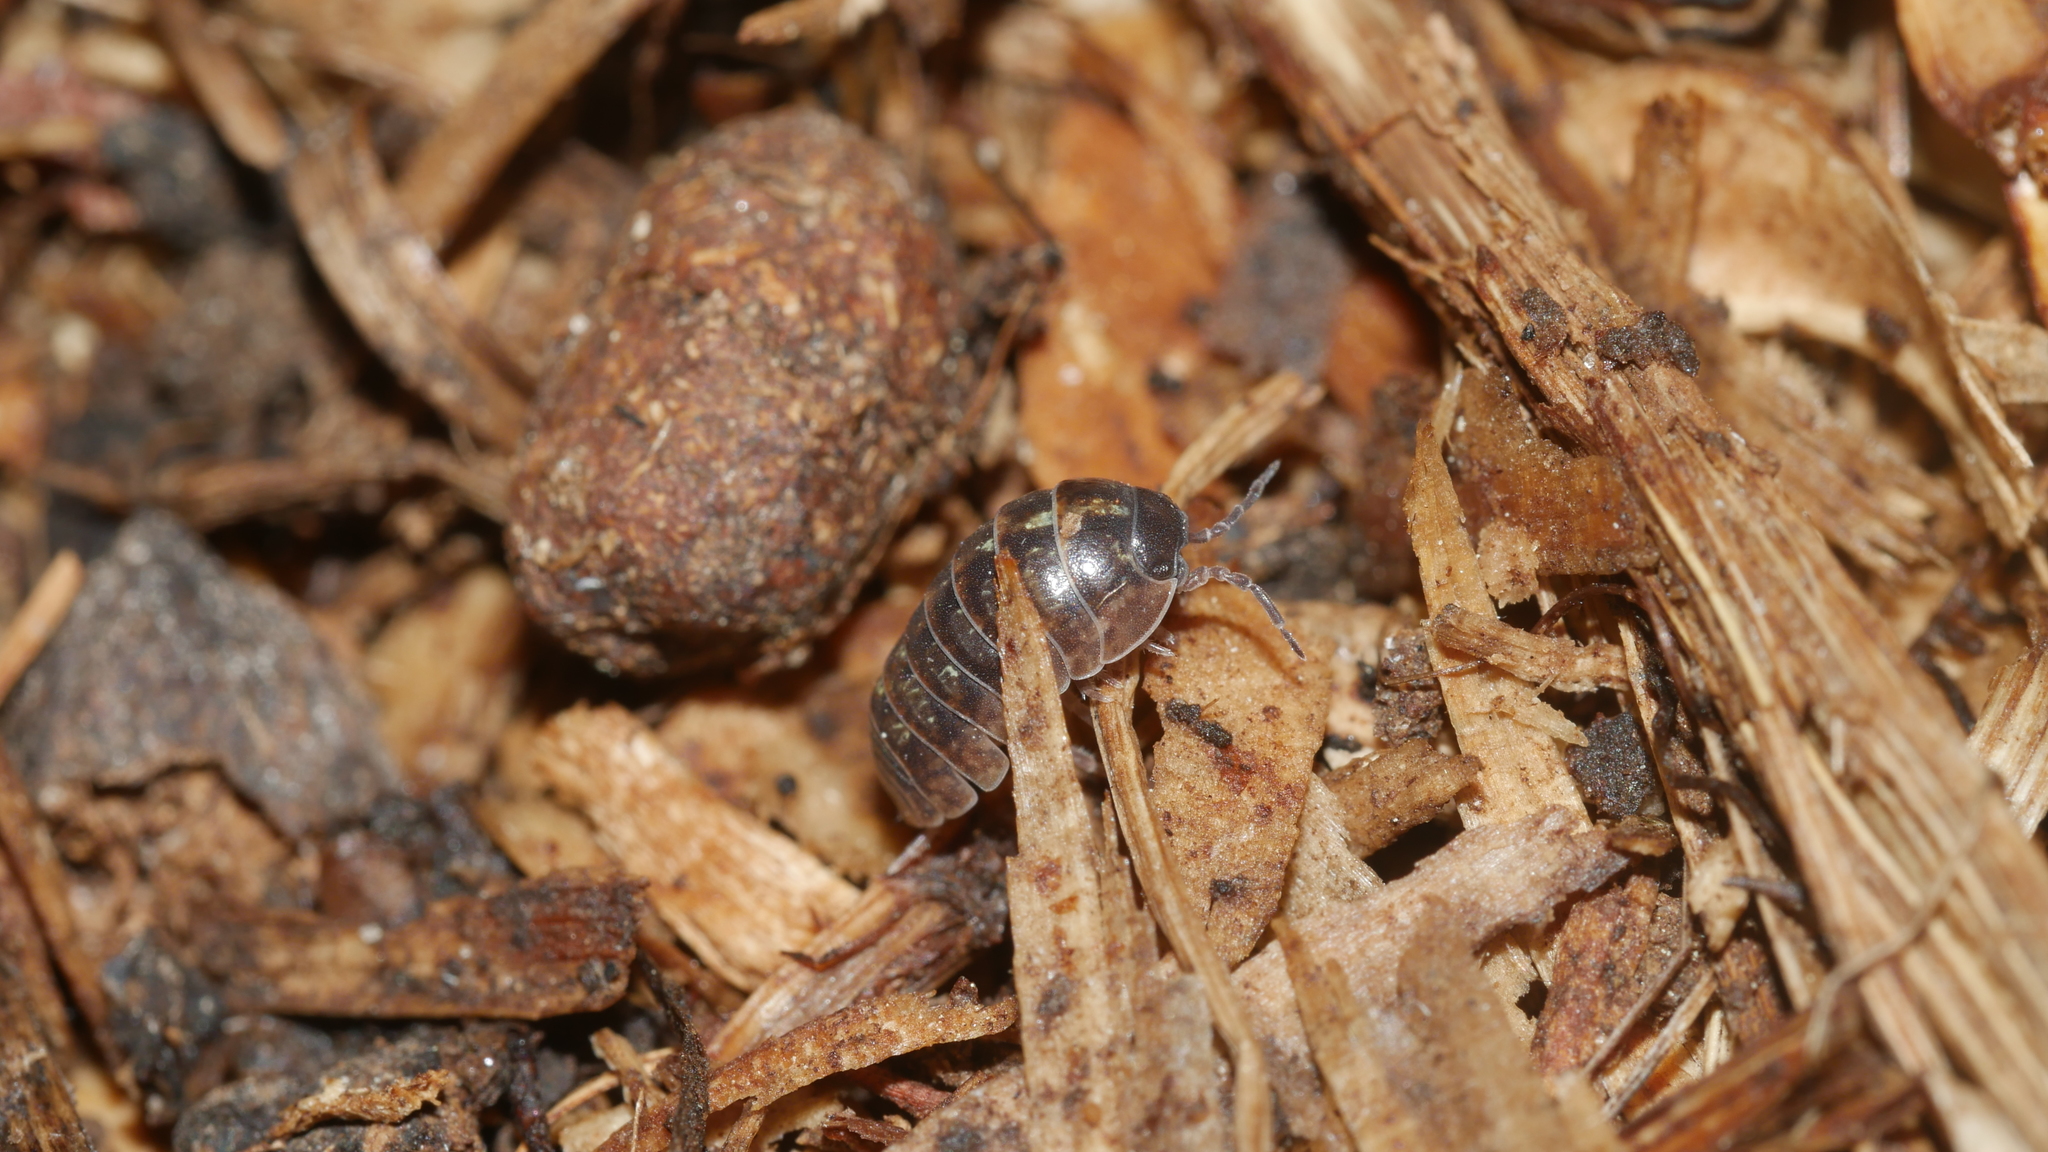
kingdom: Animalia
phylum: Arthropoda
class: Malacostraca
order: Isopoda
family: Armadillidiidae
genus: Armadillidium
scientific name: Armadillidium vulgare
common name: Common pill woodlouse
